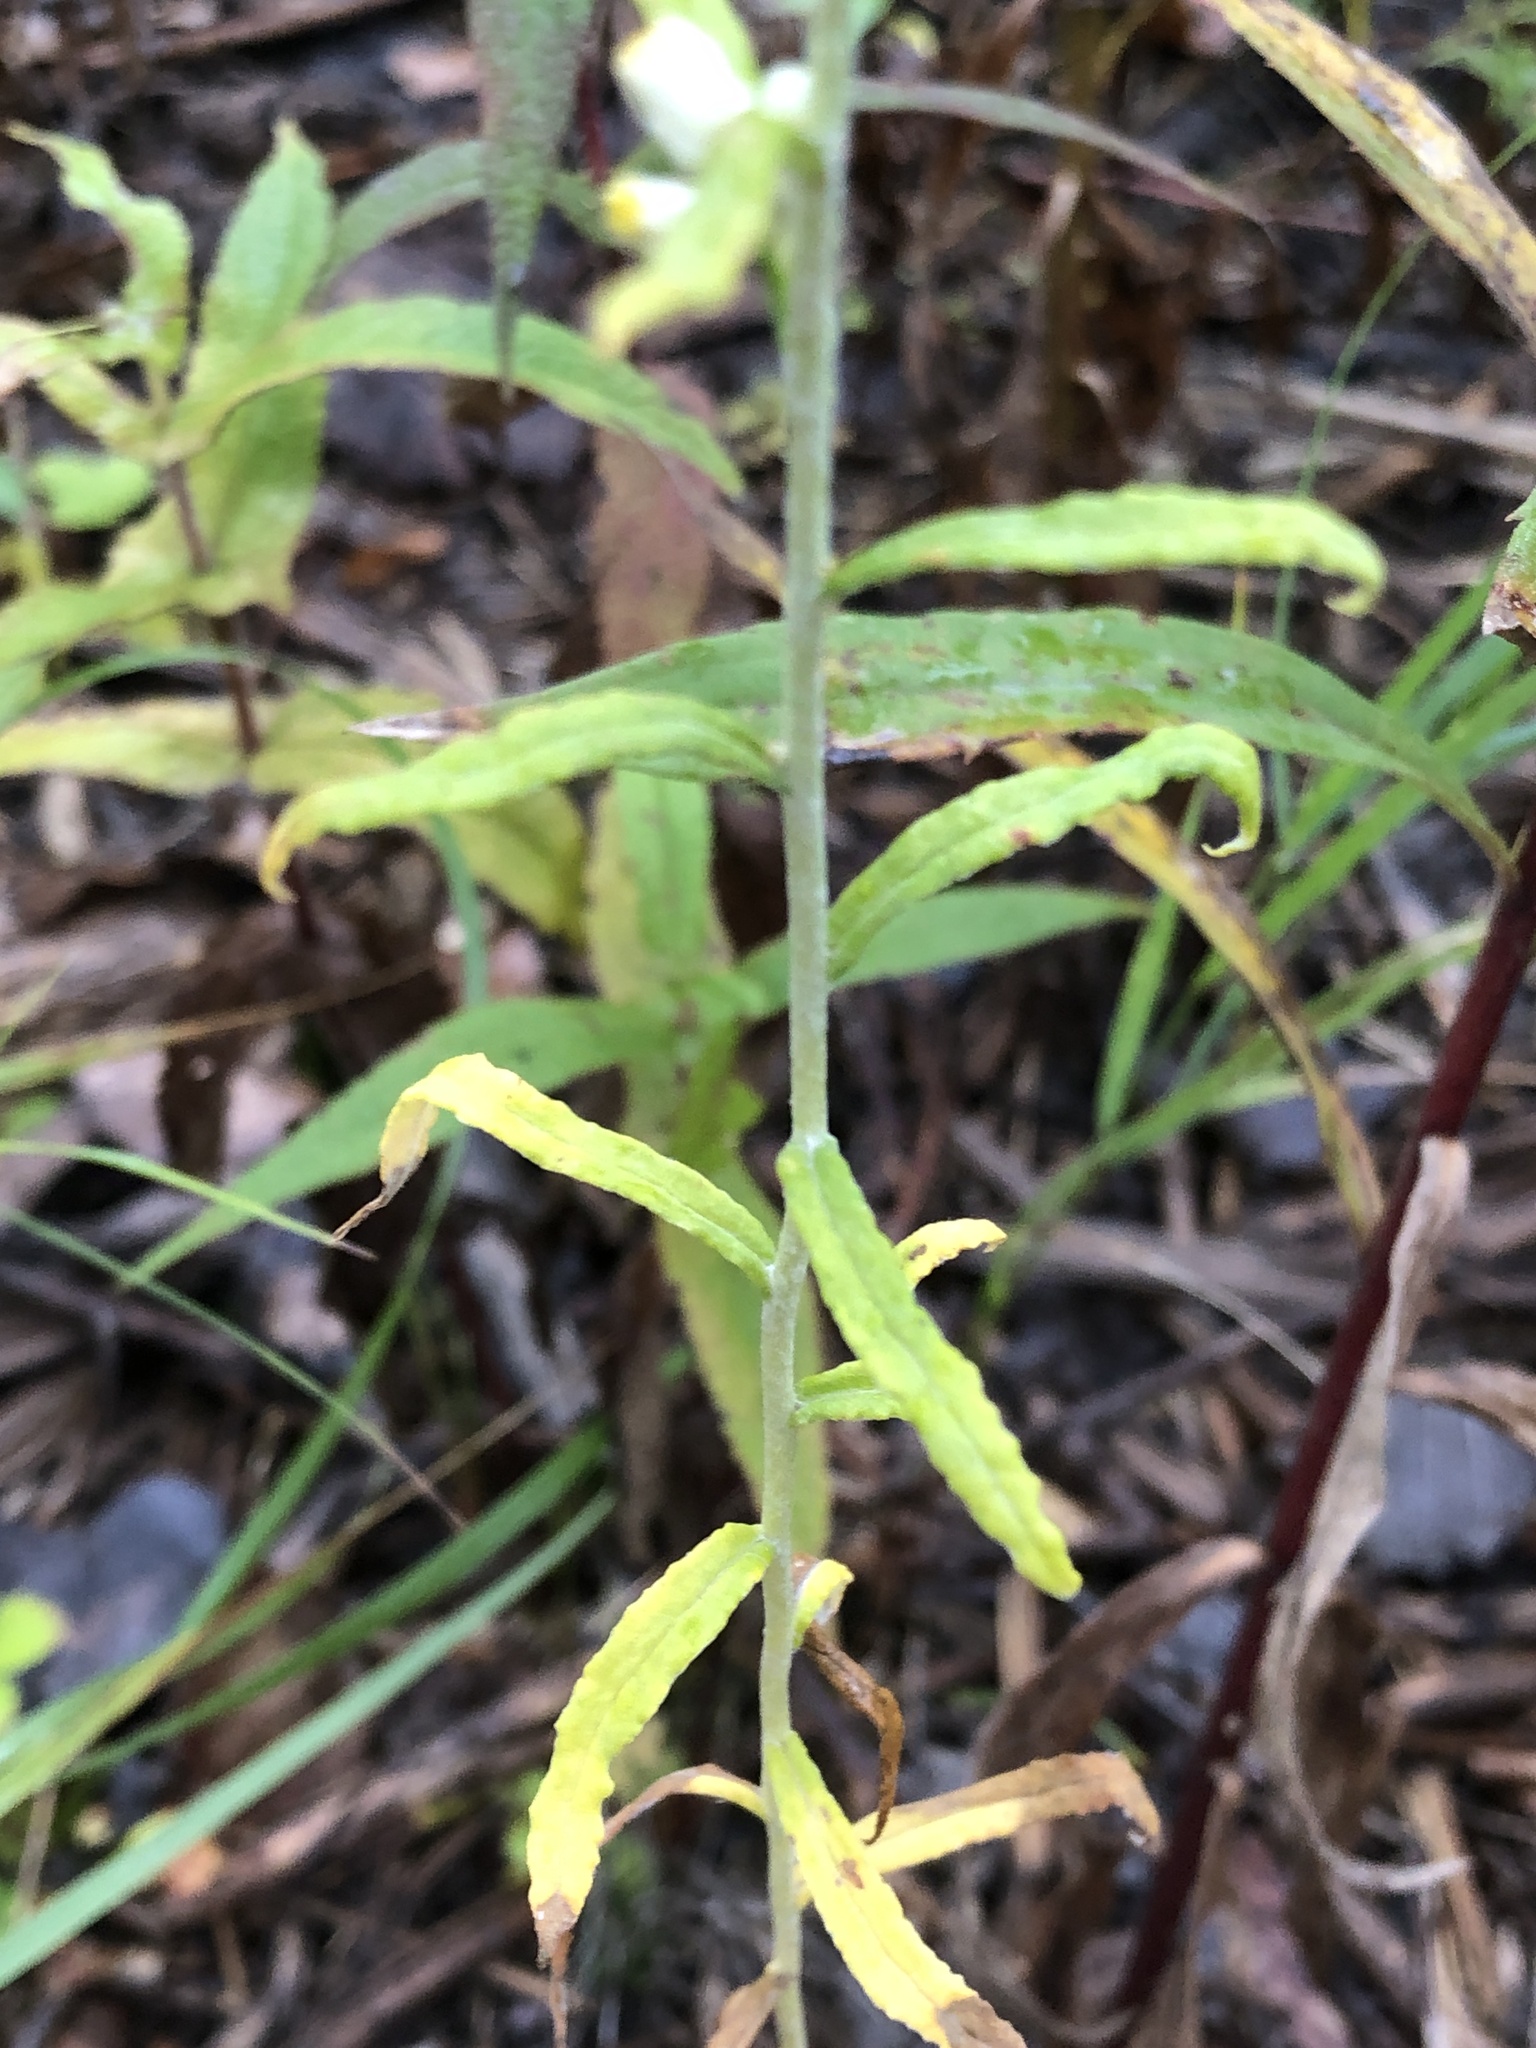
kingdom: Plantae
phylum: Tracheophyta
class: Magnoliopsida
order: Asterales
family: Asteraceae
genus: Pseudognaphalium
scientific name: Pseudognaphalium obtusifolium
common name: Eastern rabbit-tobacco
